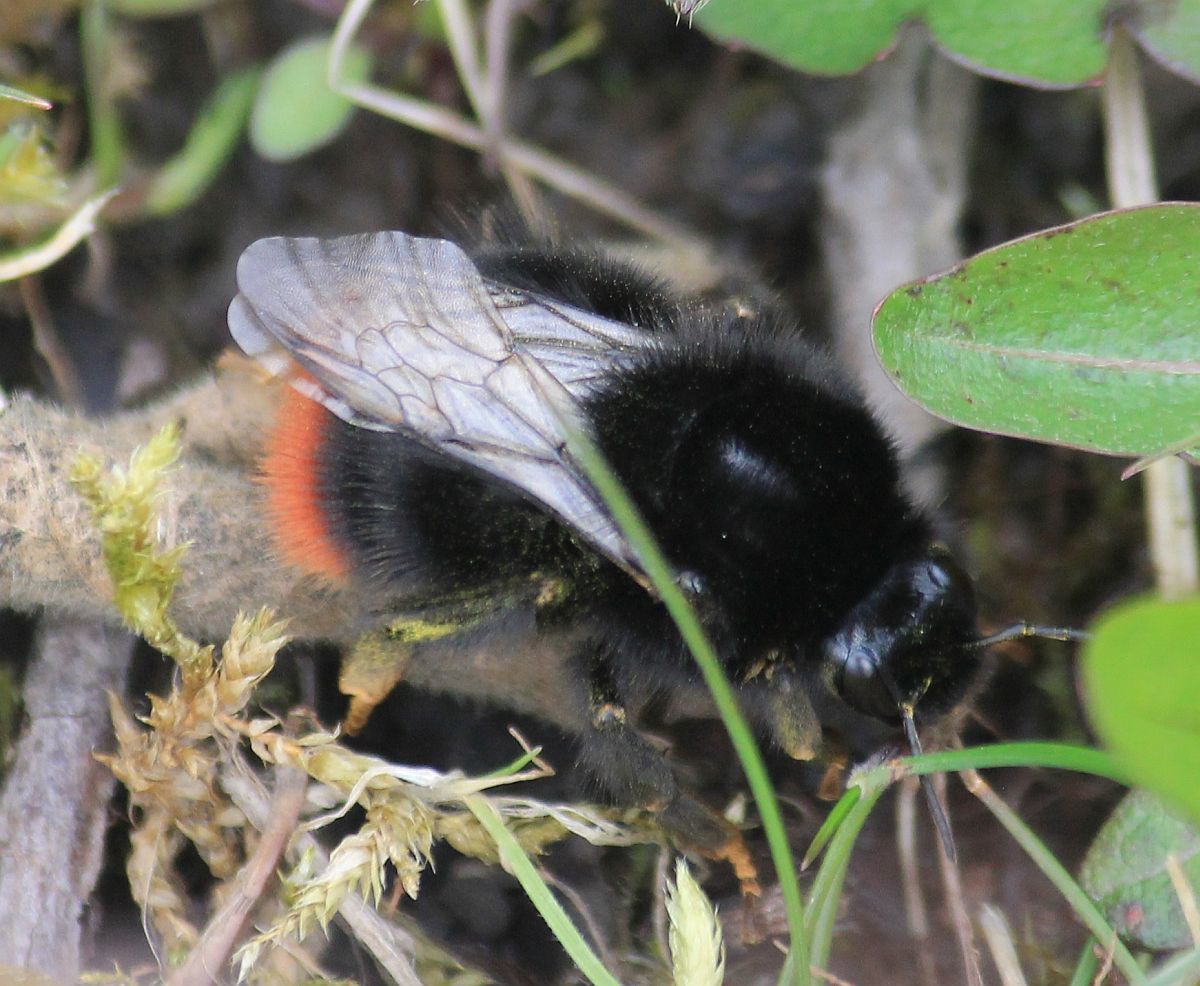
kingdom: Animalia
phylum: Arthropoda
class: Insecta
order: Hymenoptera
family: Apidae
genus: Bombus
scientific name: Bombus lapidarius
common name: Large red-tailed humble-bee
